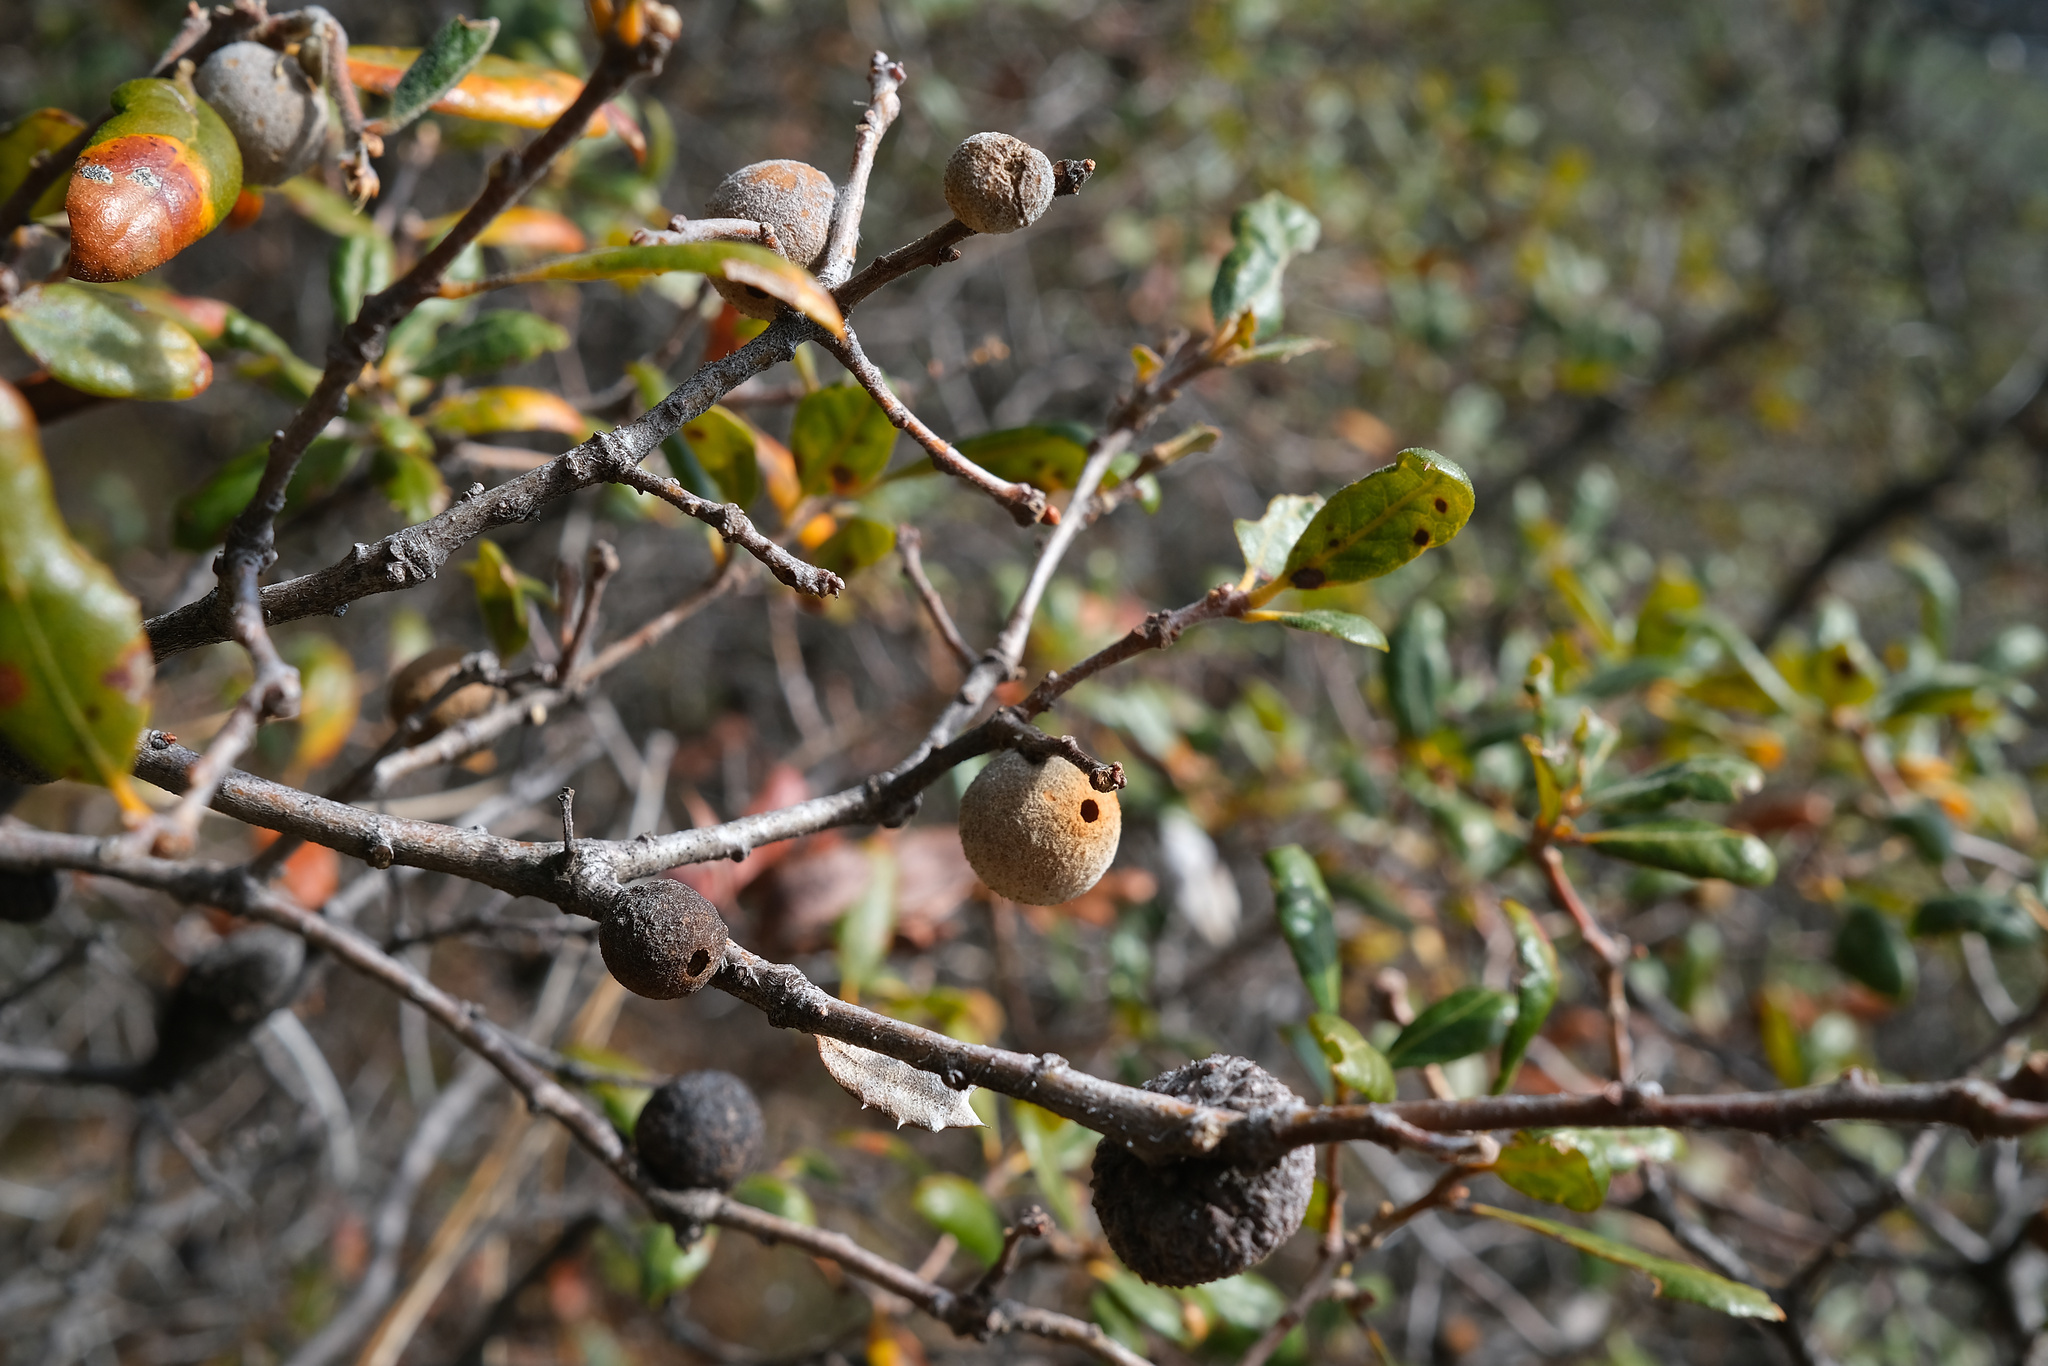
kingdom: Animalia
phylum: Arthropoda
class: Insecta
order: Hymenoptera
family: Cynipidae
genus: Burnettweldia
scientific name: Burnettweldia
